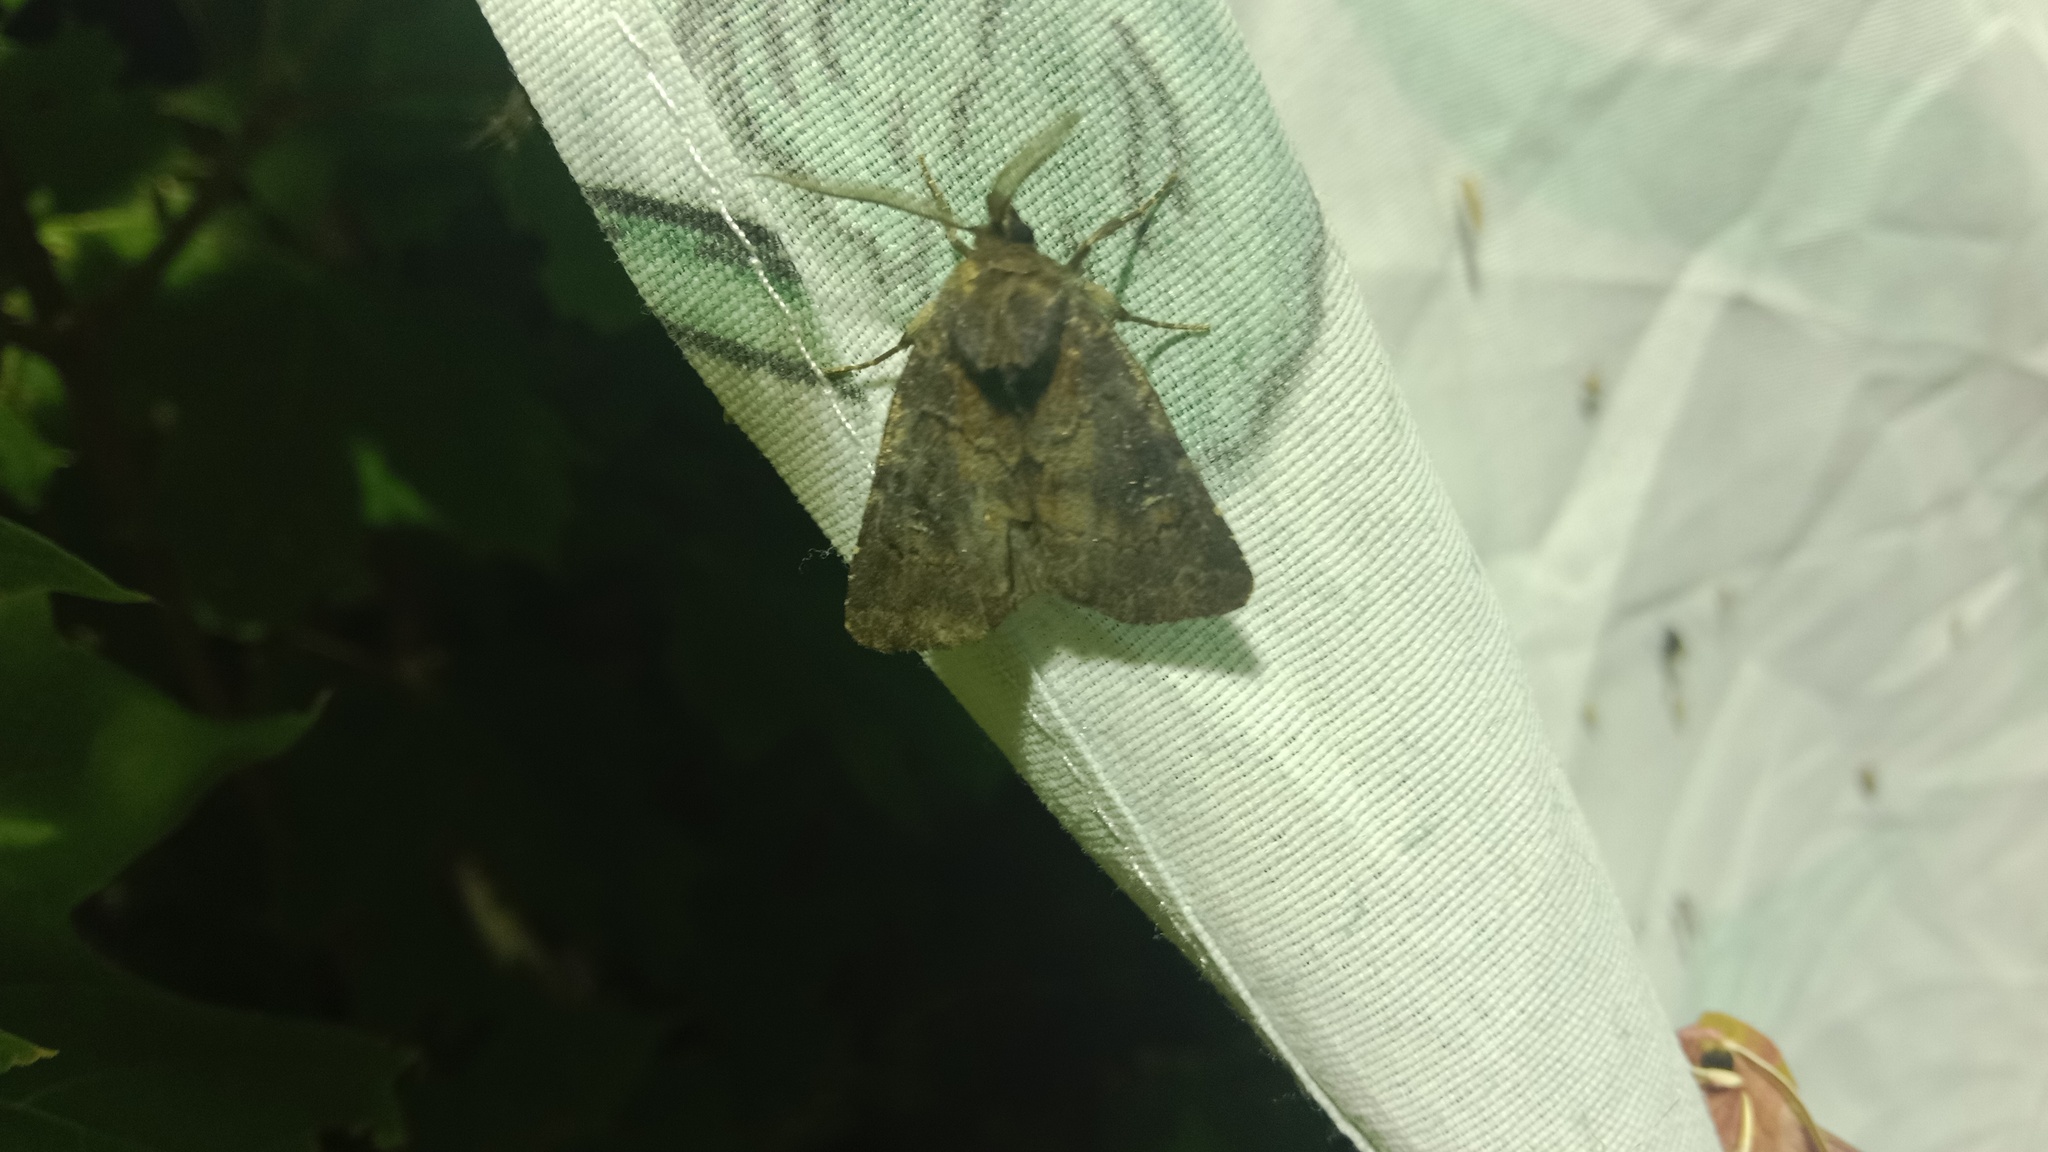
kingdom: Animalia
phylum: Arthropoda
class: Insecta
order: Lepidoptera
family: Noctuidae
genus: Charanyca
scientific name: Charanyca ferruginea
